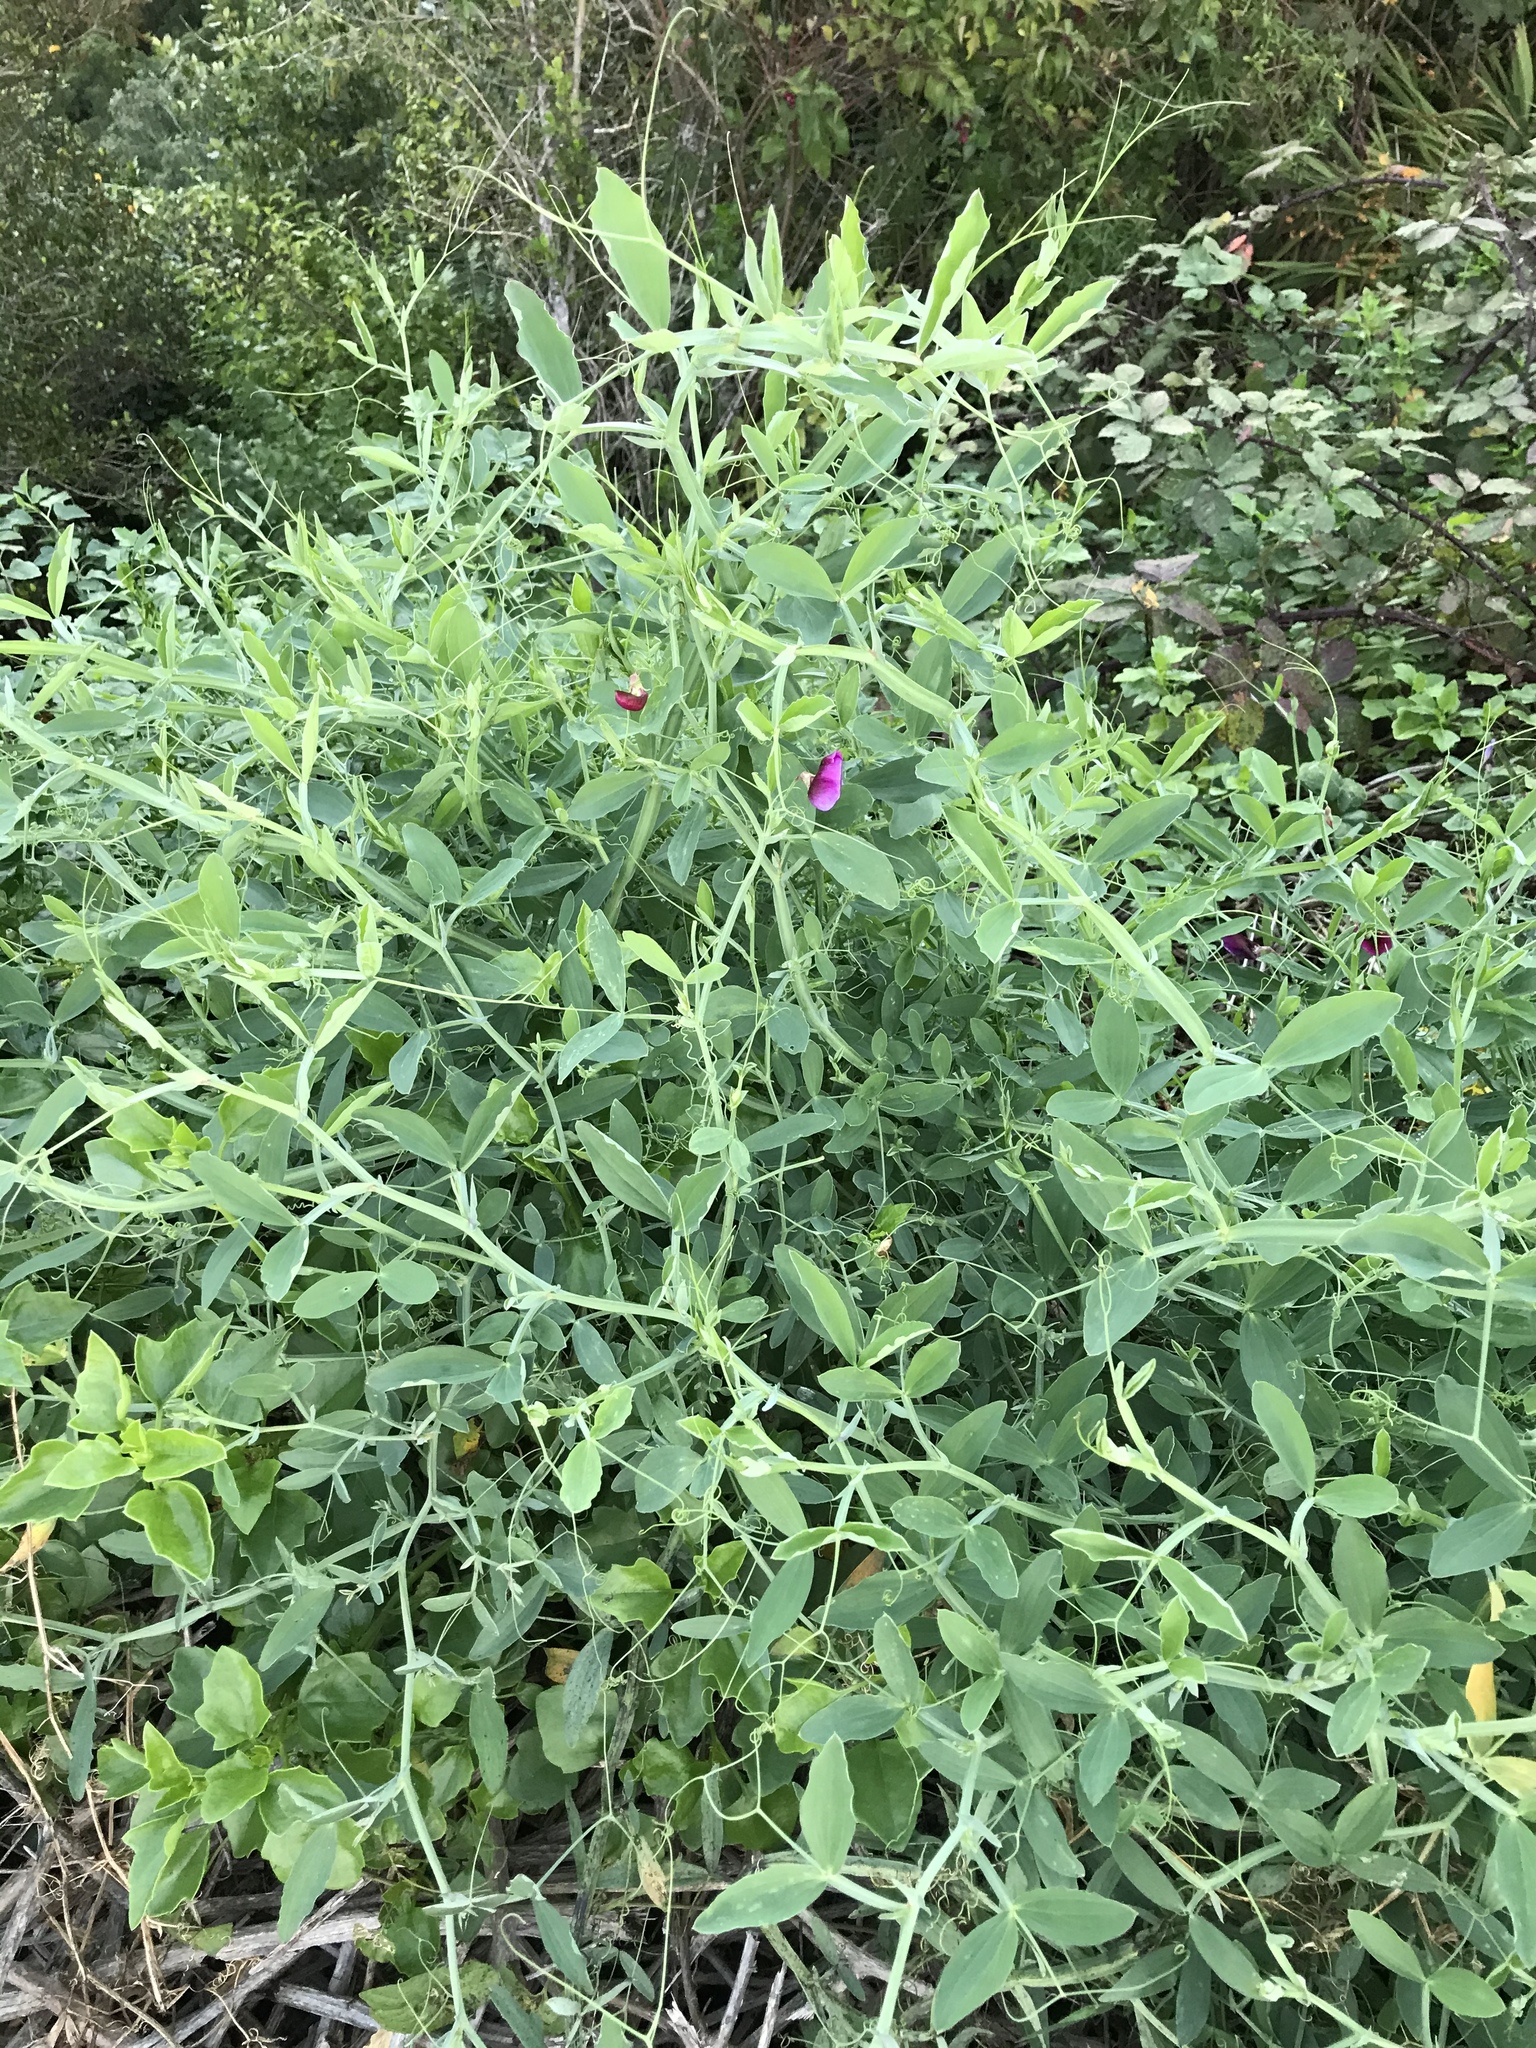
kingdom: Plantae
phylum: Tracheophyta
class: Magnoliopsida
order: Fabales
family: Fabaceae
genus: Lathyrus
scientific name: Lathyrus tingitanus
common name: Tangier pea
